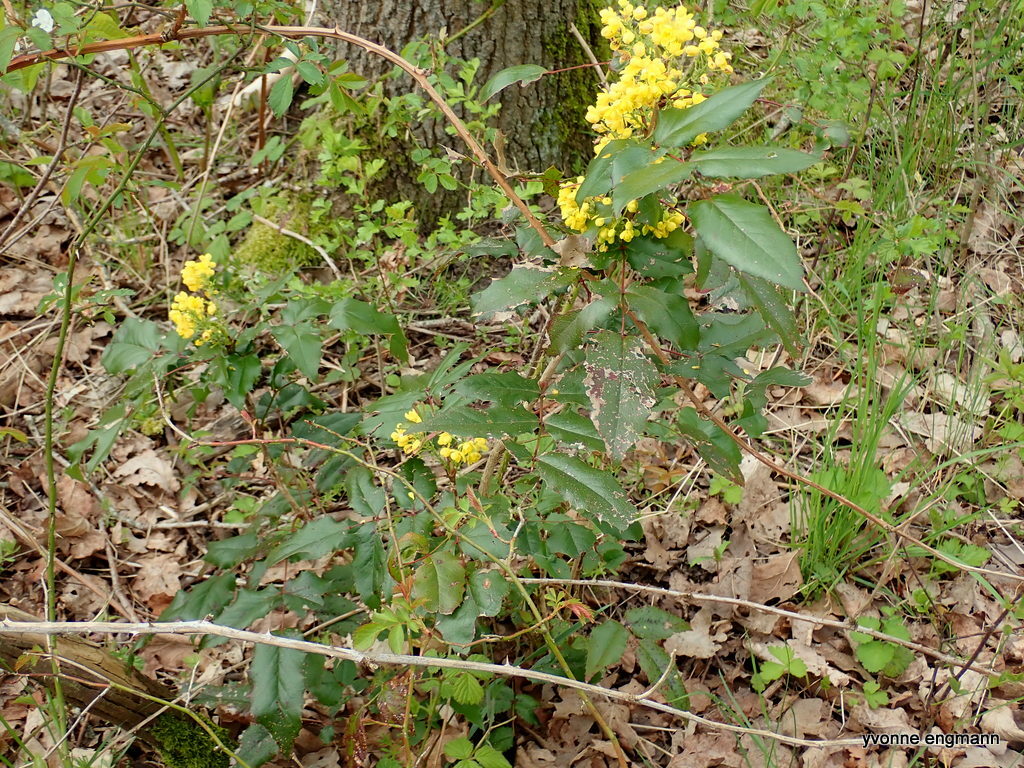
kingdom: Plantae
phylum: Tracheophyta
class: Magnoliopsida
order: Ranunculales
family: Berberidaceae
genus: Mahonia
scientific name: Mahonia aquifolium
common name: Oregon-grape
